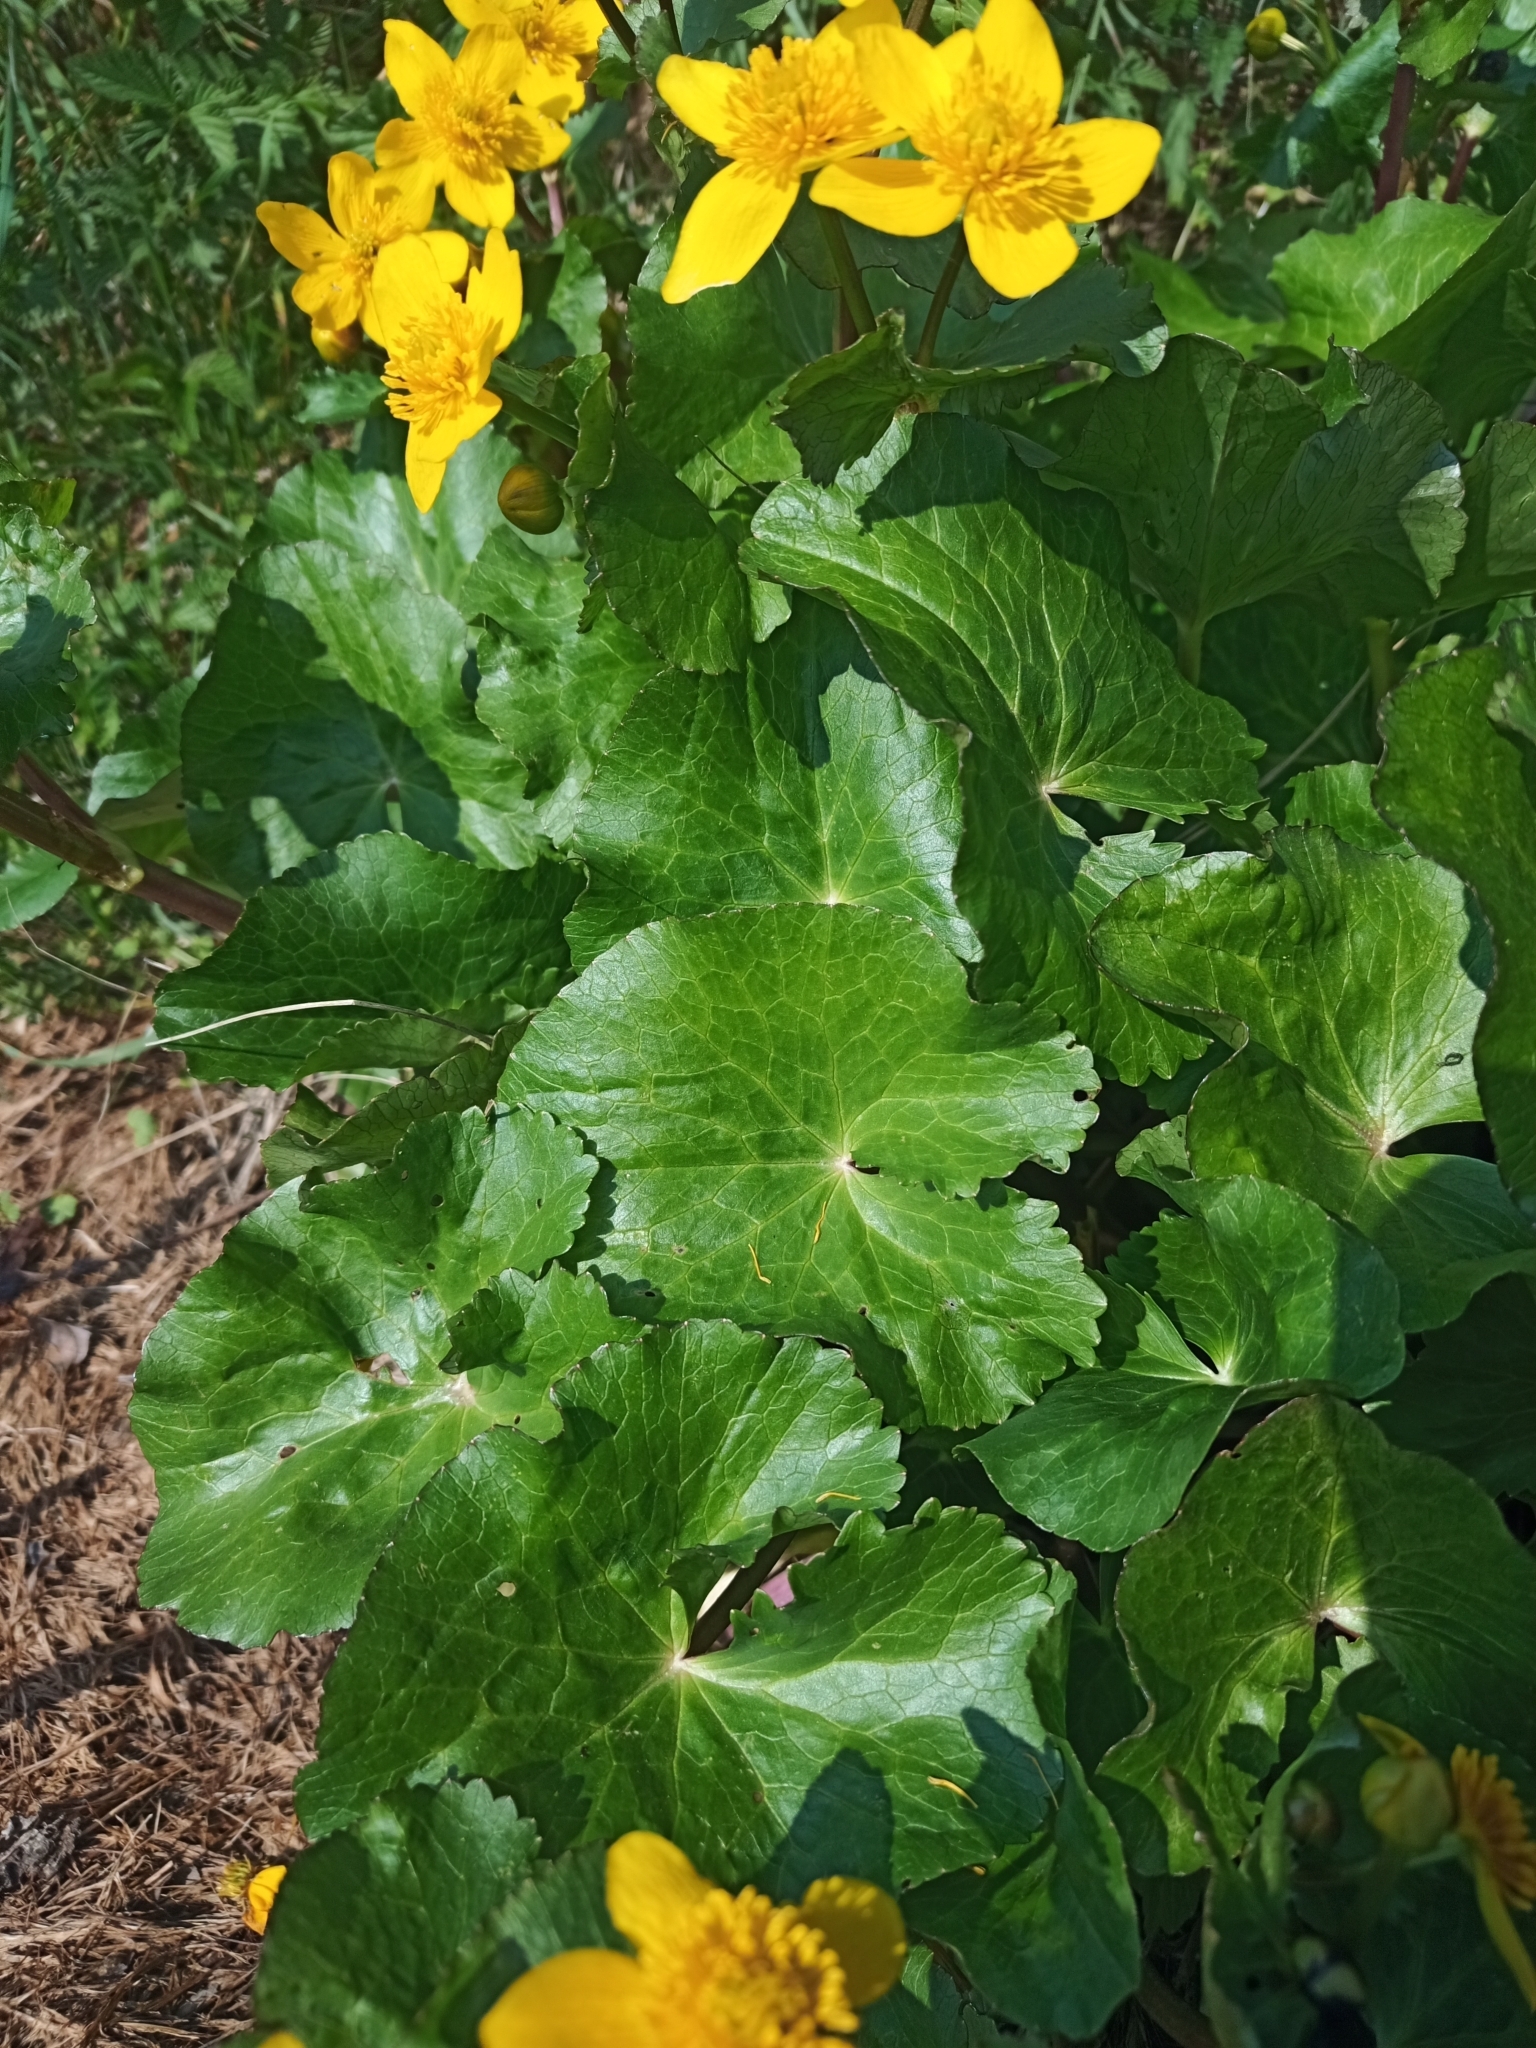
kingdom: Plantae
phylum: Tracheophyta
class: Magnoliopsida
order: Ranunculales
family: Ranunculaceae
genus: Caltha
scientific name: Caltha palustris
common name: Marsh marigold
